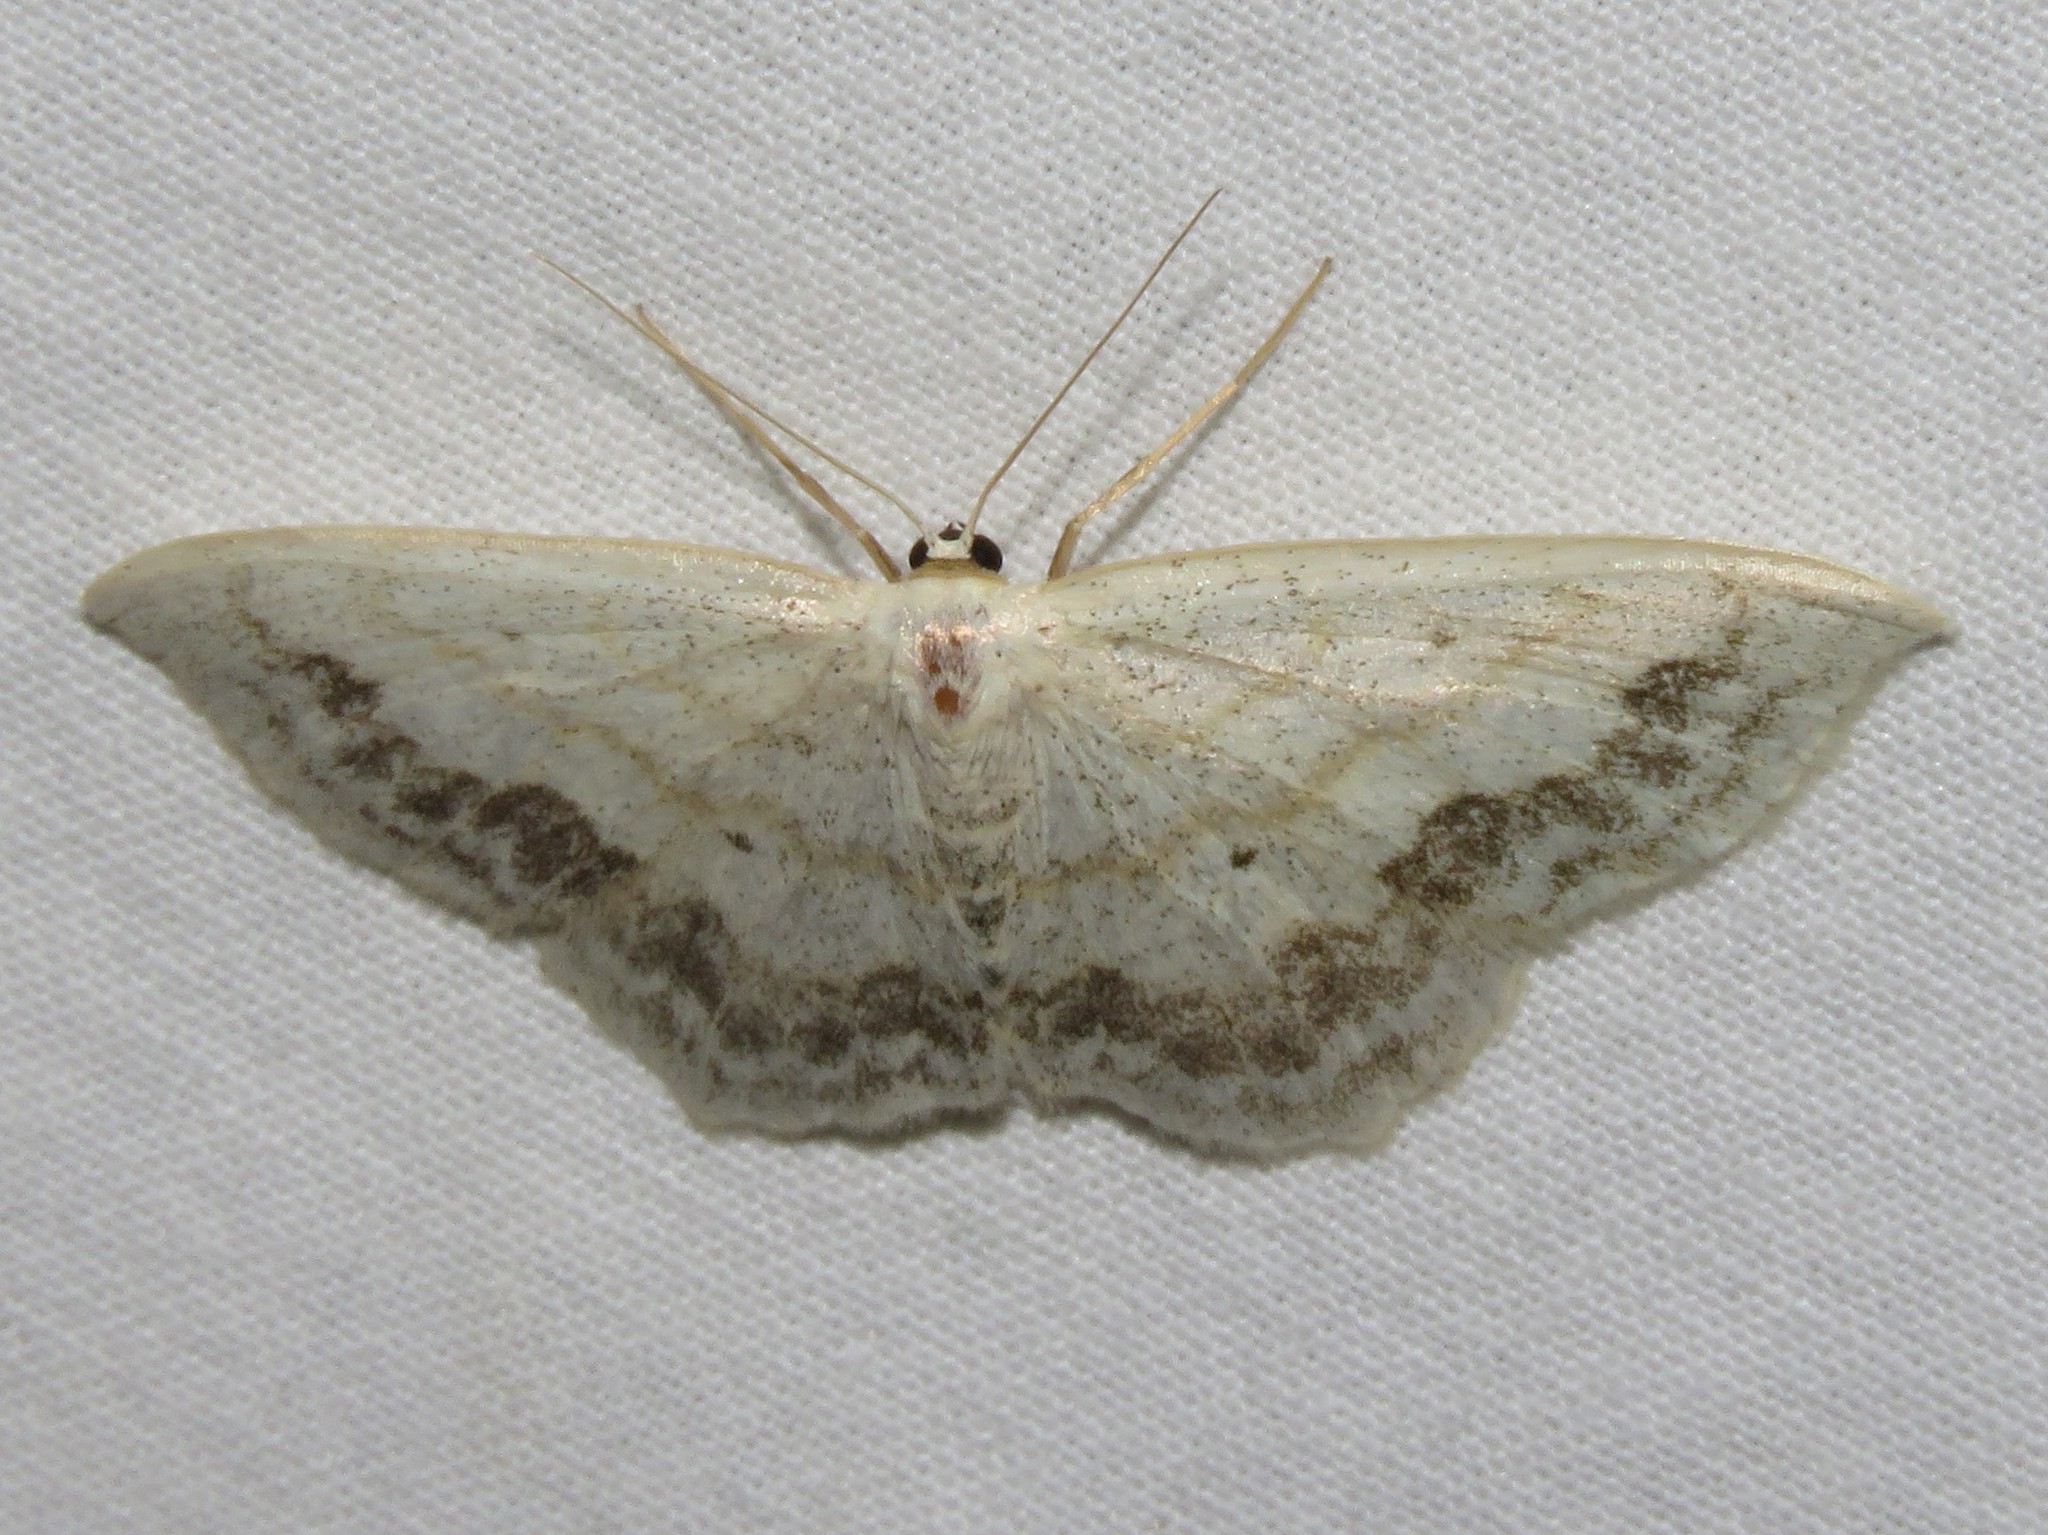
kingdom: Animalia
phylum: Arthropoda
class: Insecta
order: Lepidoptera
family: Geometridae
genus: Scopula
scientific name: Scopula limboundata
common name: Large lace border
